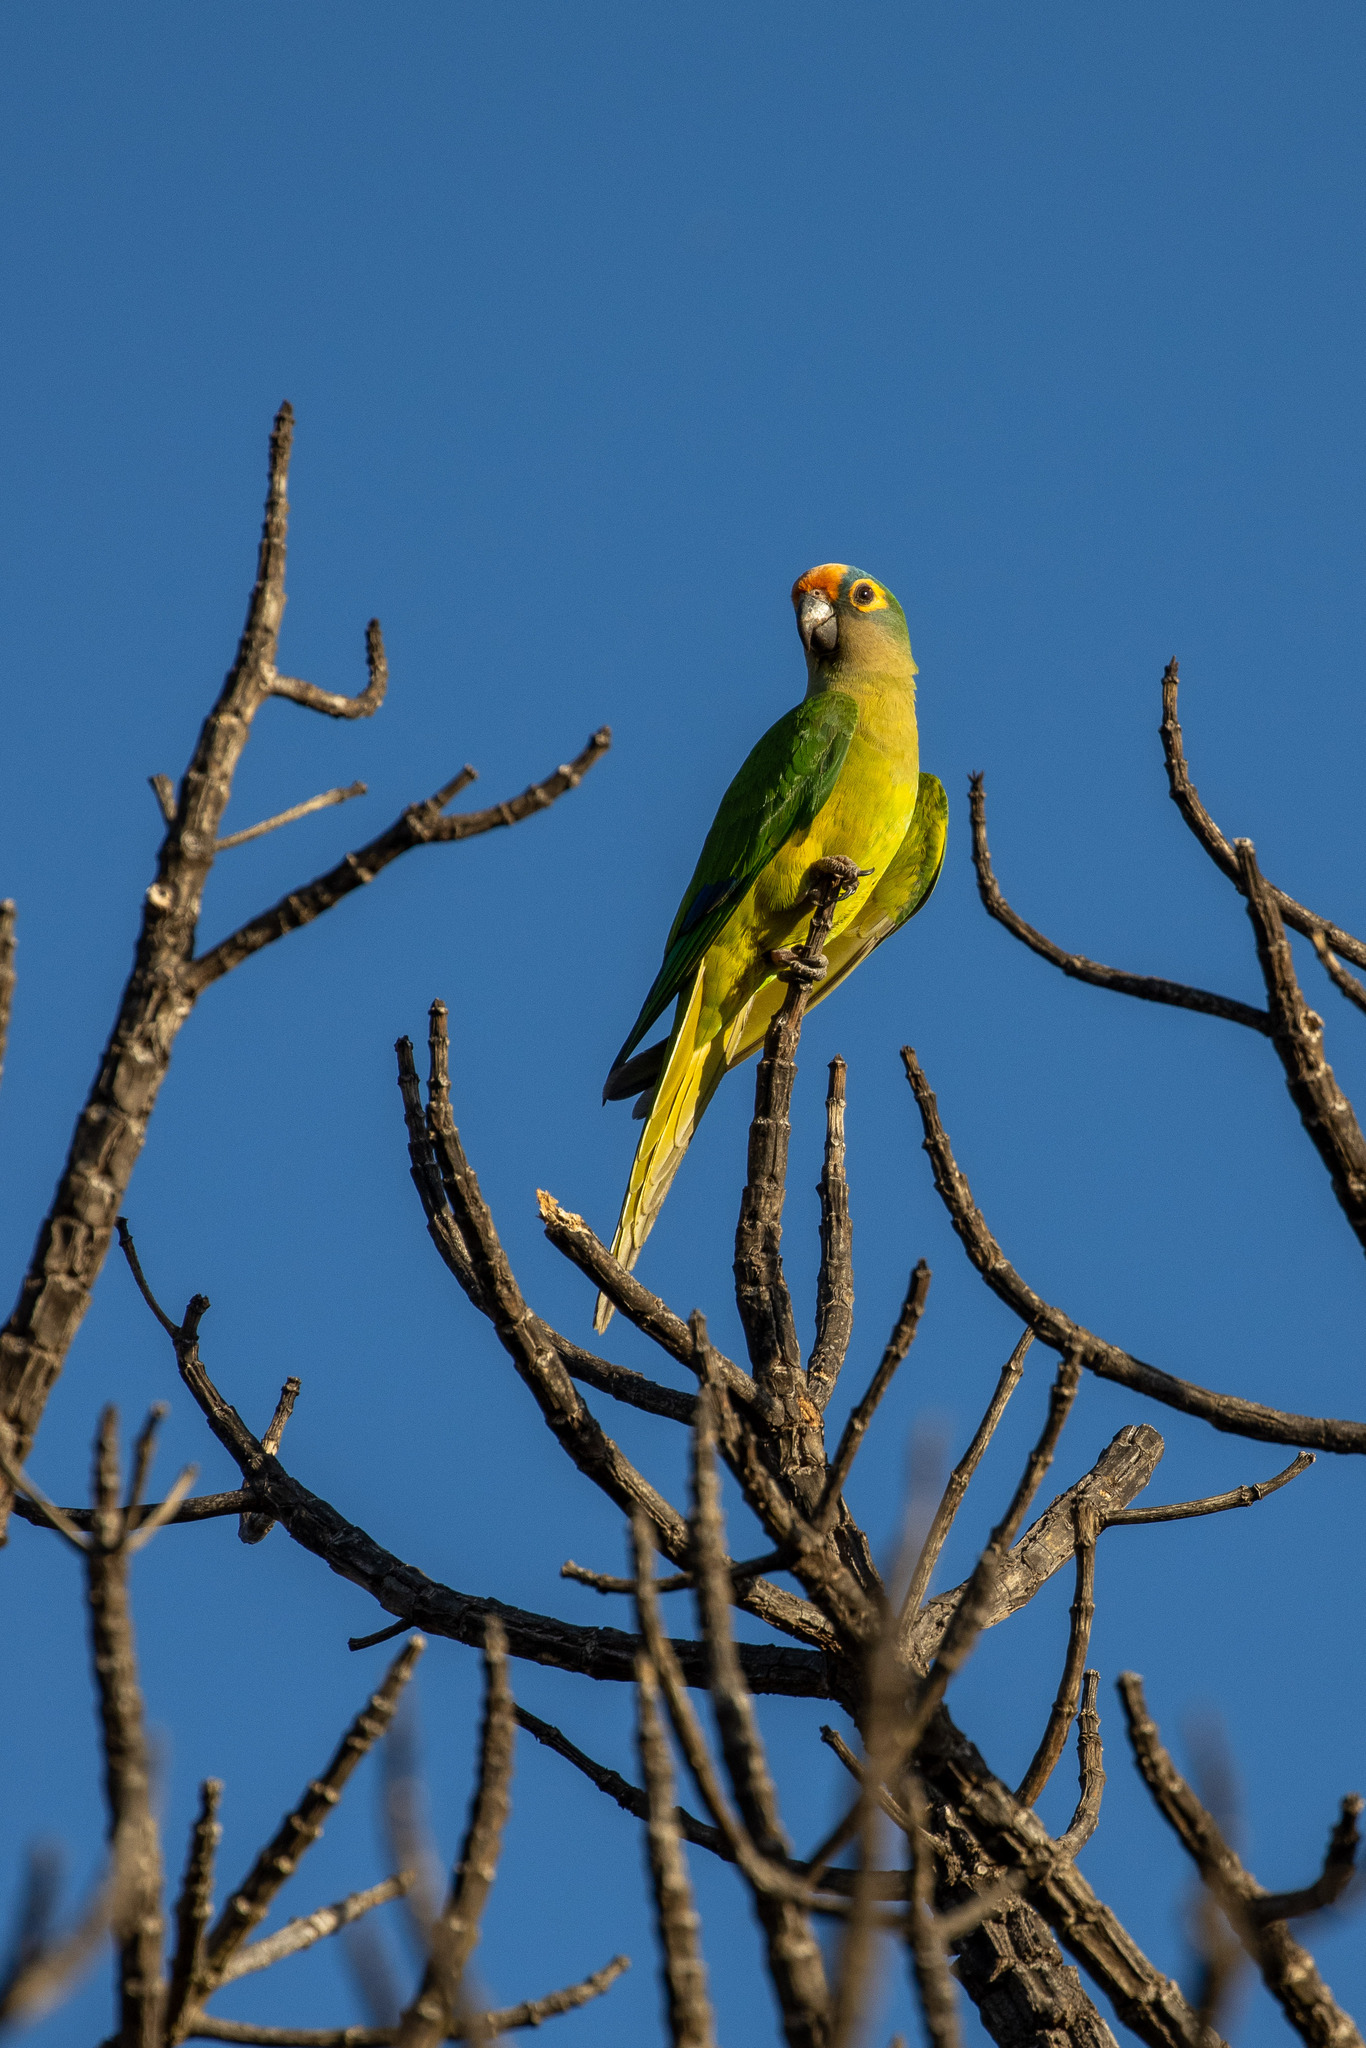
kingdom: Animalia
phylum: Chordata
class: Aves
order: Psittaciformes
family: Psittacidae
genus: Aratinga
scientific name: Aratinga aurea
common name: Peach-fronted parakeet
